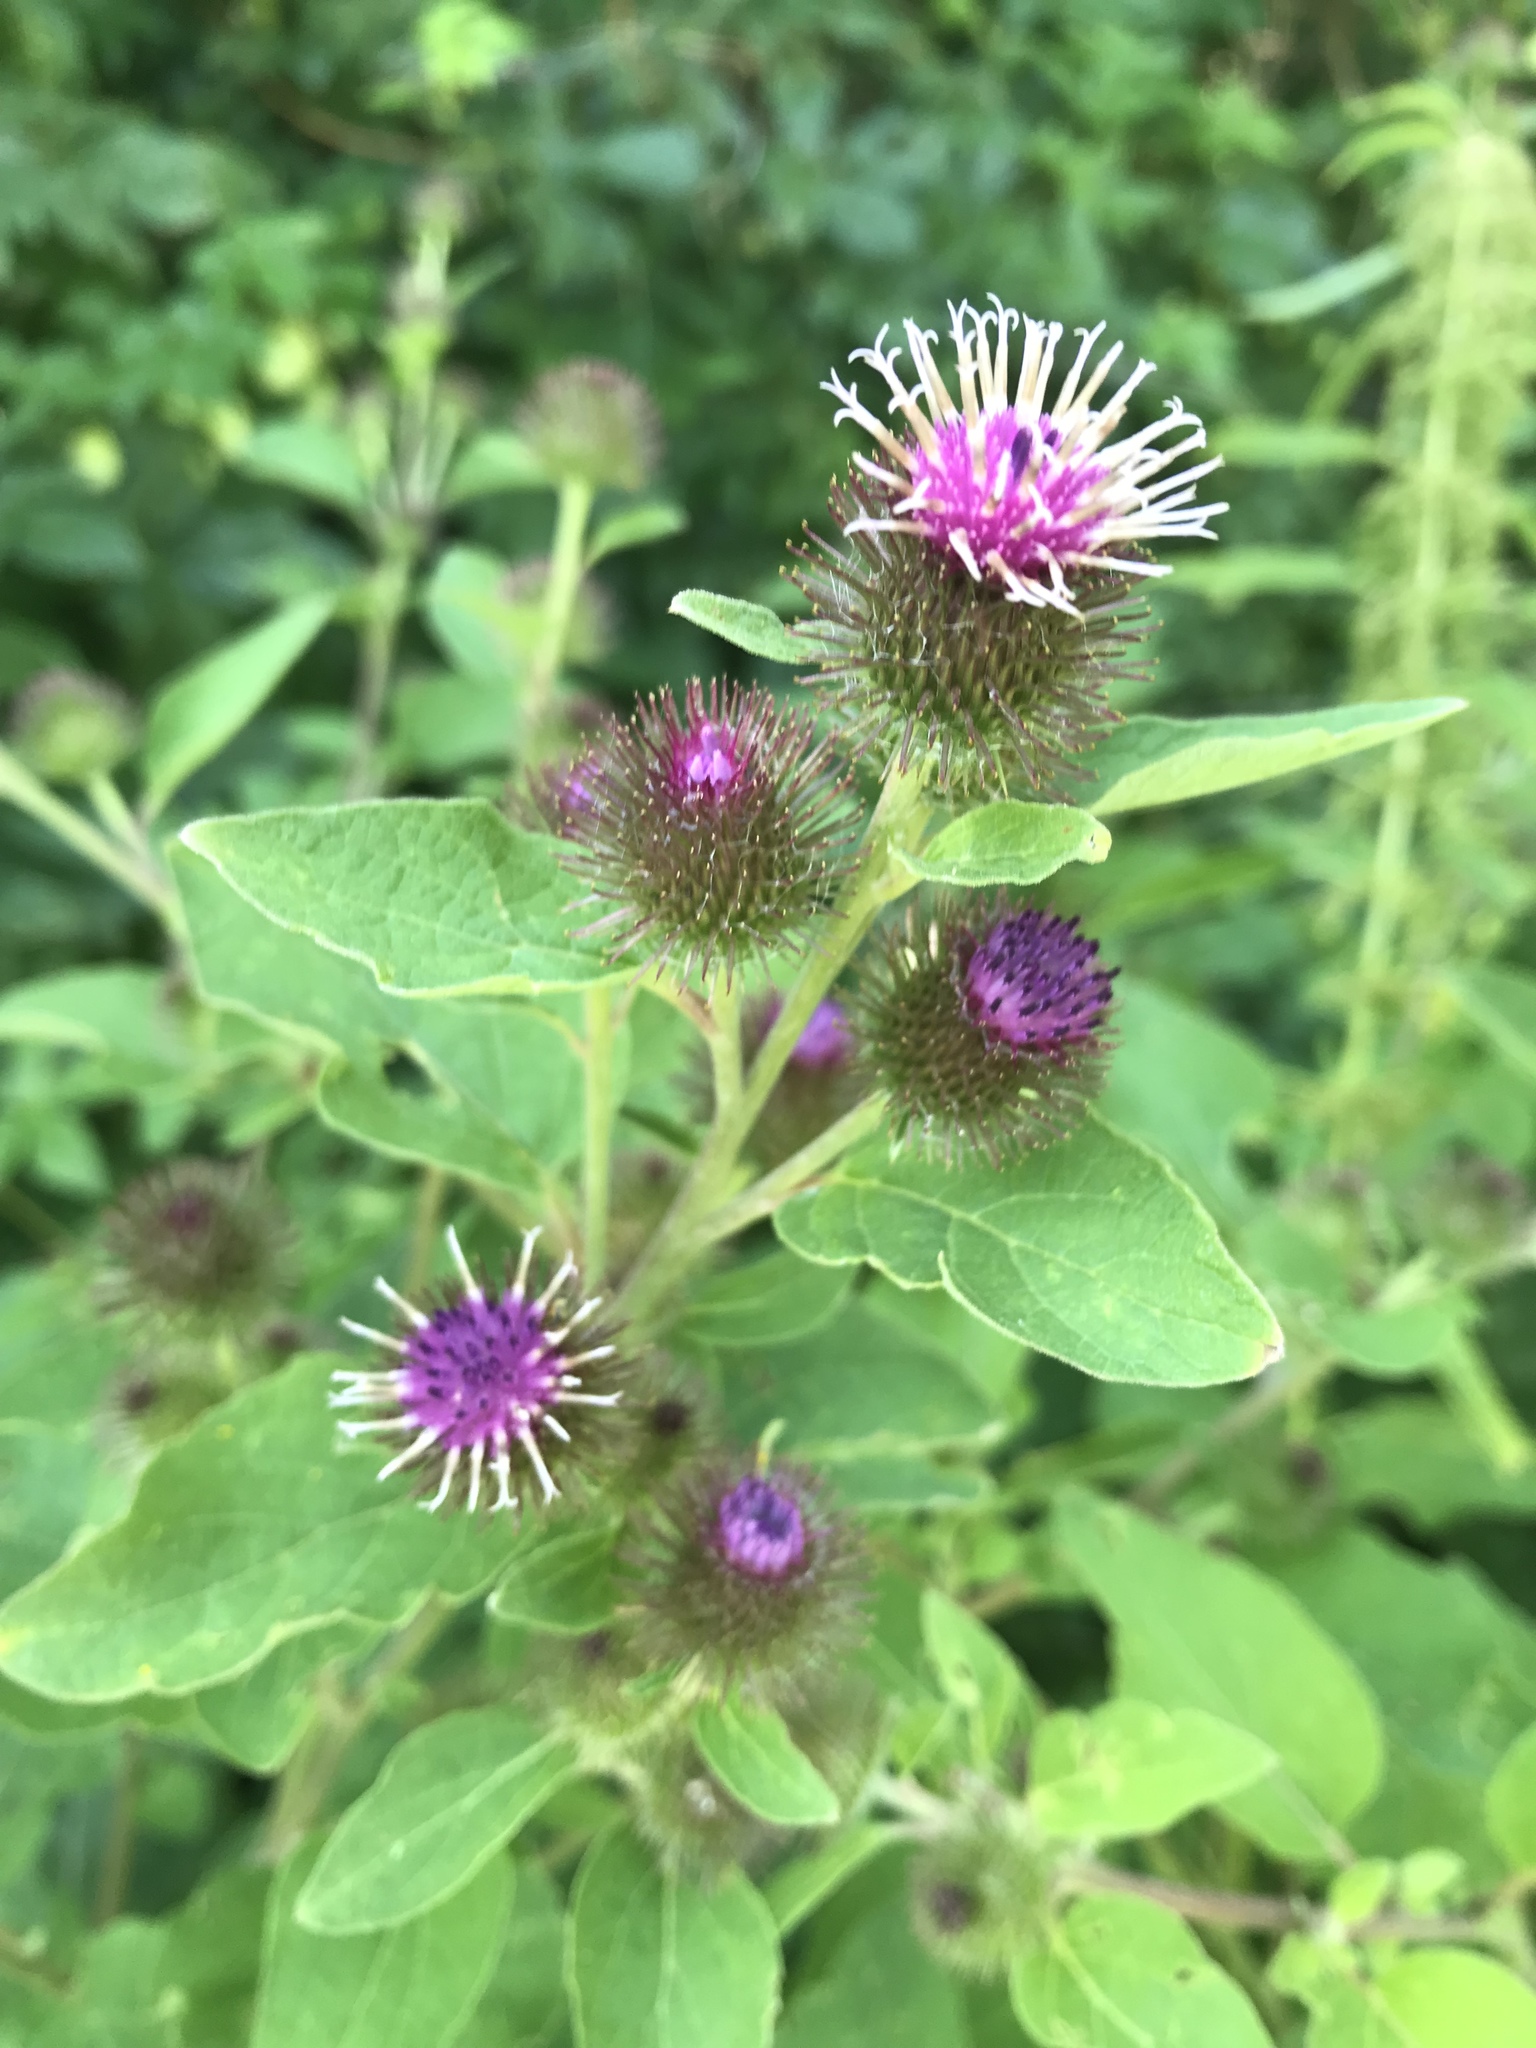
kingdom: Plantae
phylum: Tracheophyta
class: Magnoliopsida
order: Asterales
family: Asteraceae
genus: Arctium
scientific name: Arctium lappa
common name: Greater burdock
